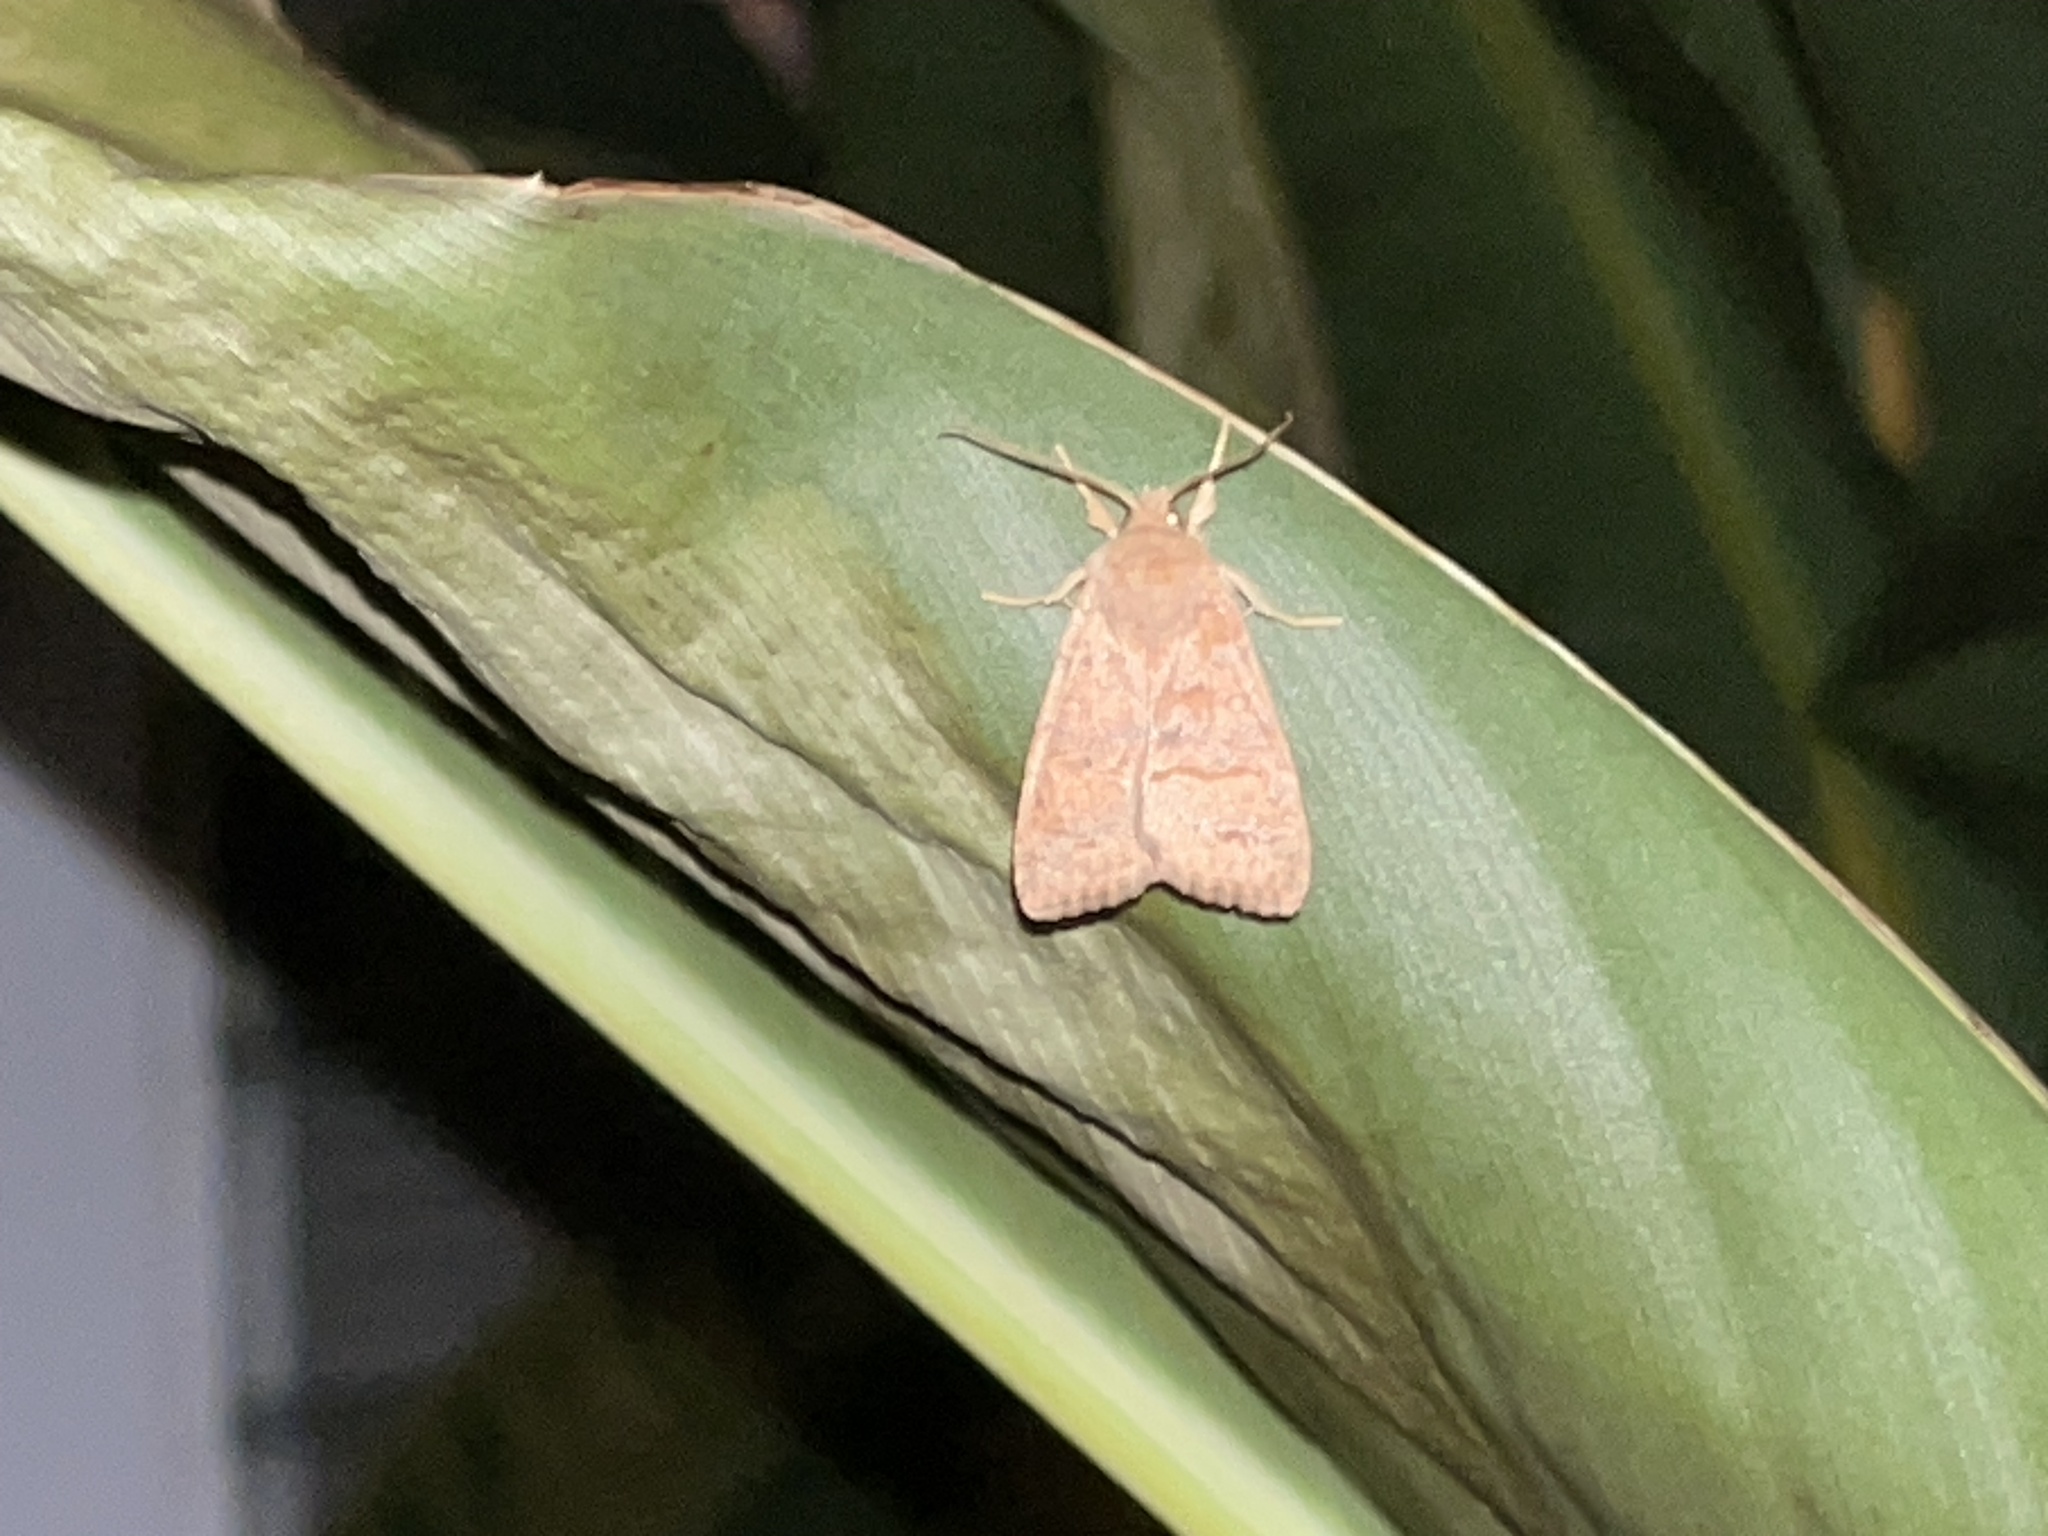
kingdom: Animalia
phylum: Arthropoda
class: Insecta
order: Lepidoptera
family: Noctuidae
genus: Agrochola
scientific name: Agrochola bicolorago
